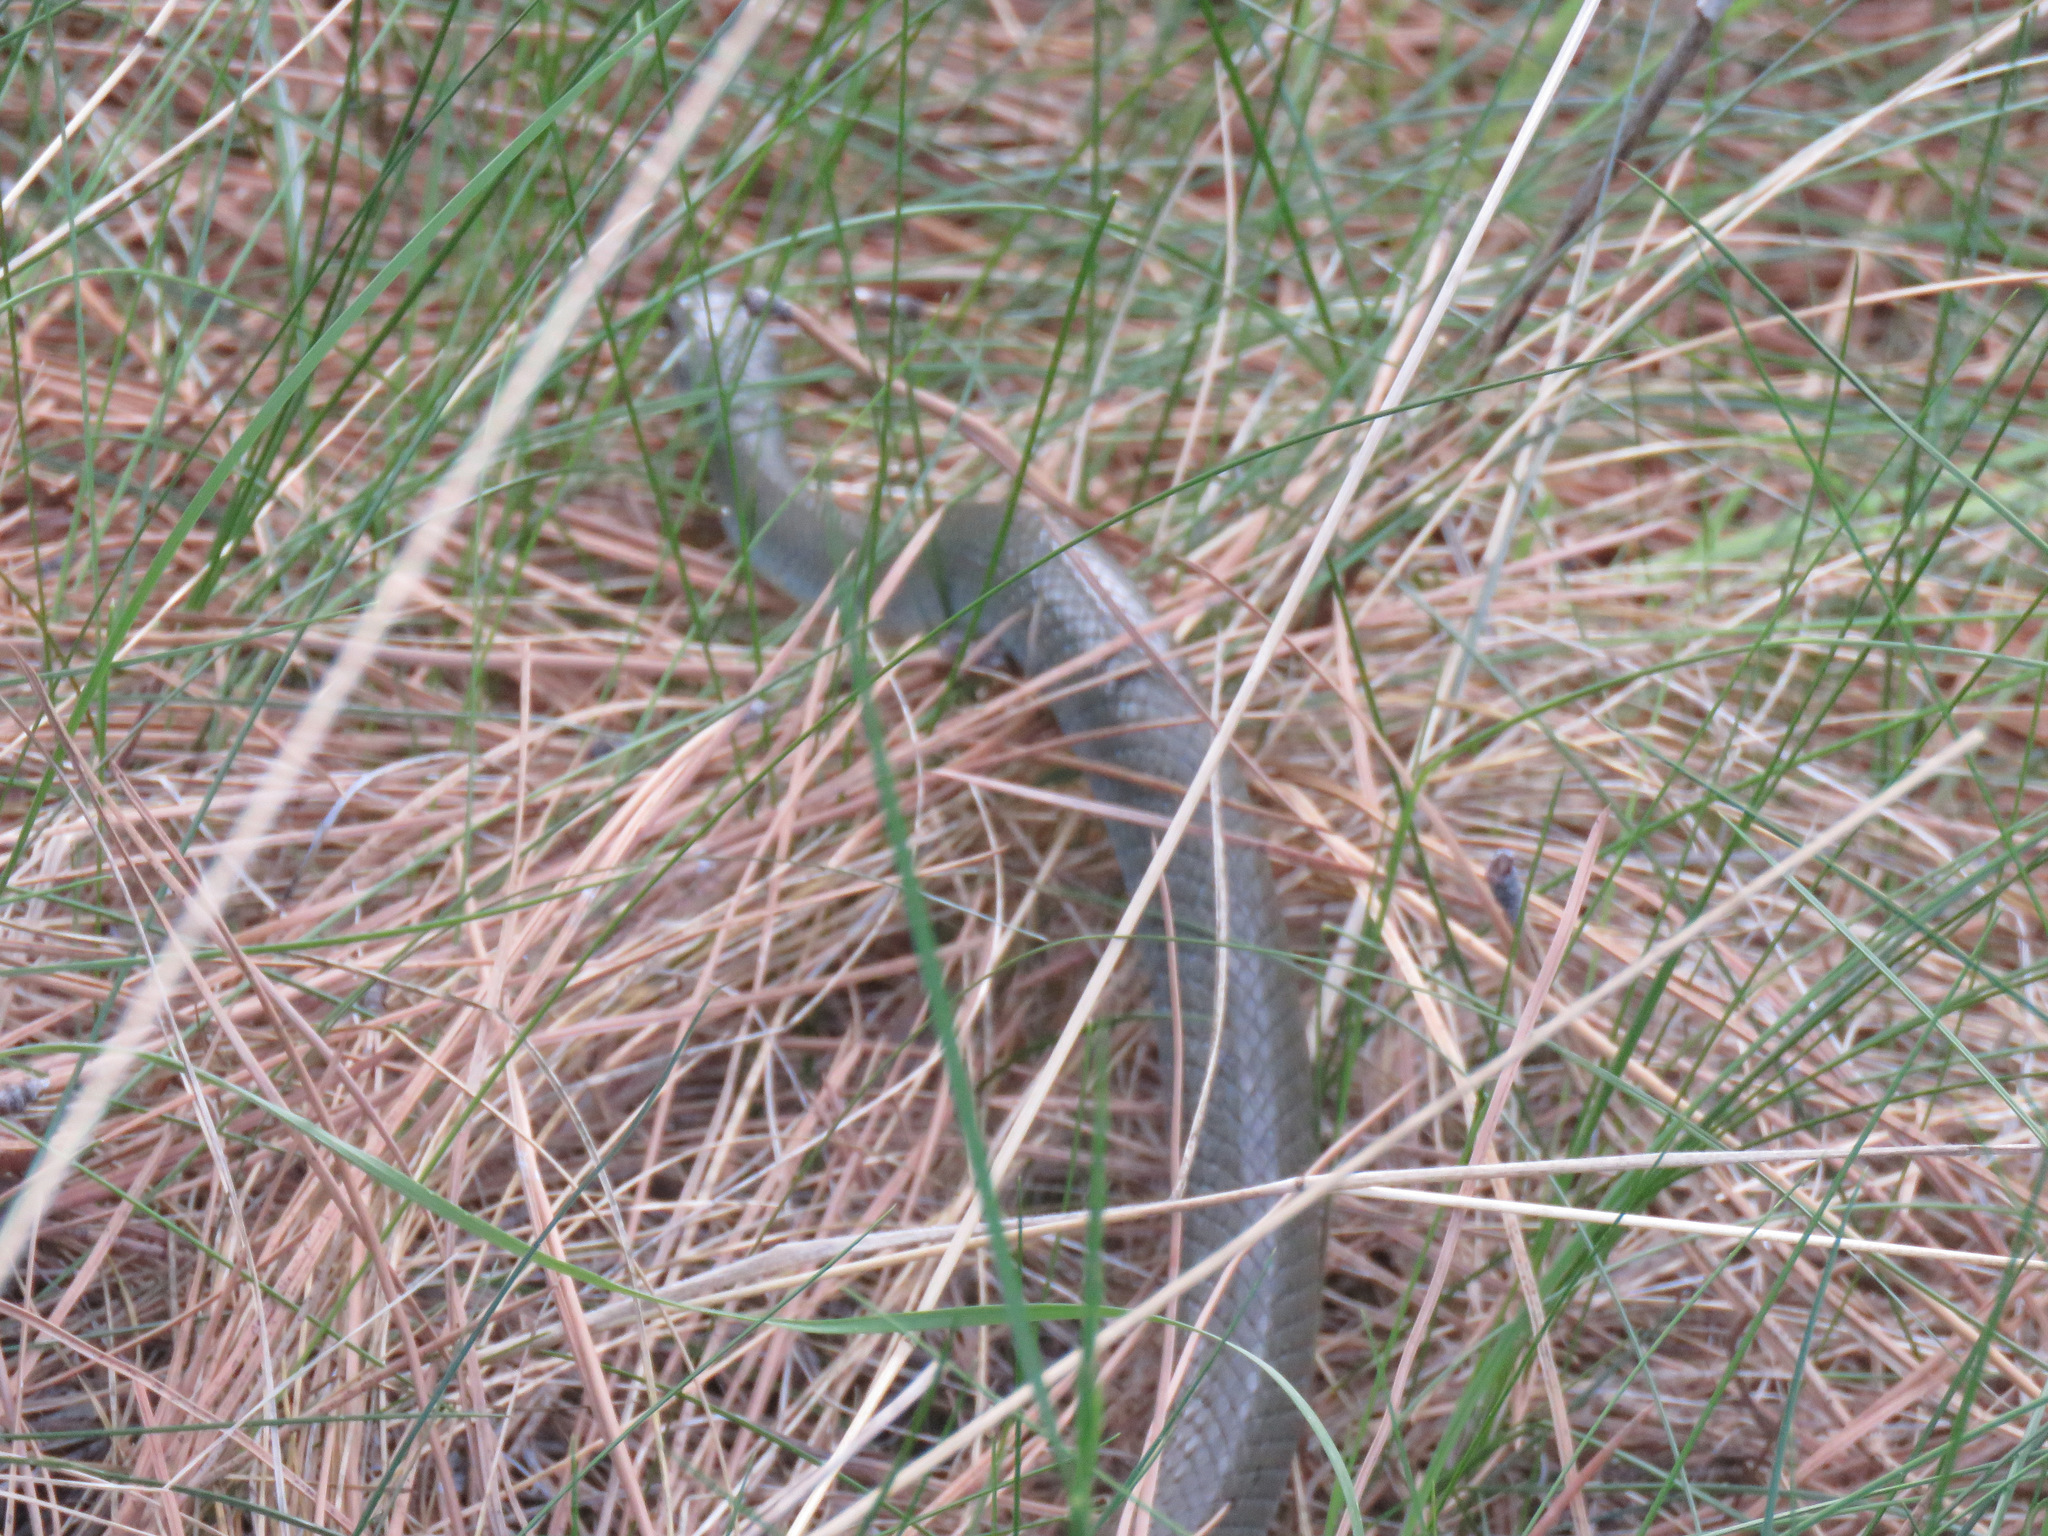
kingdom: Animalia
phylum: Chordata
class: Squamata
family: Colubridae
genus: Coluber
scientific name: Coluber constrictor
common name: Eastern racer
